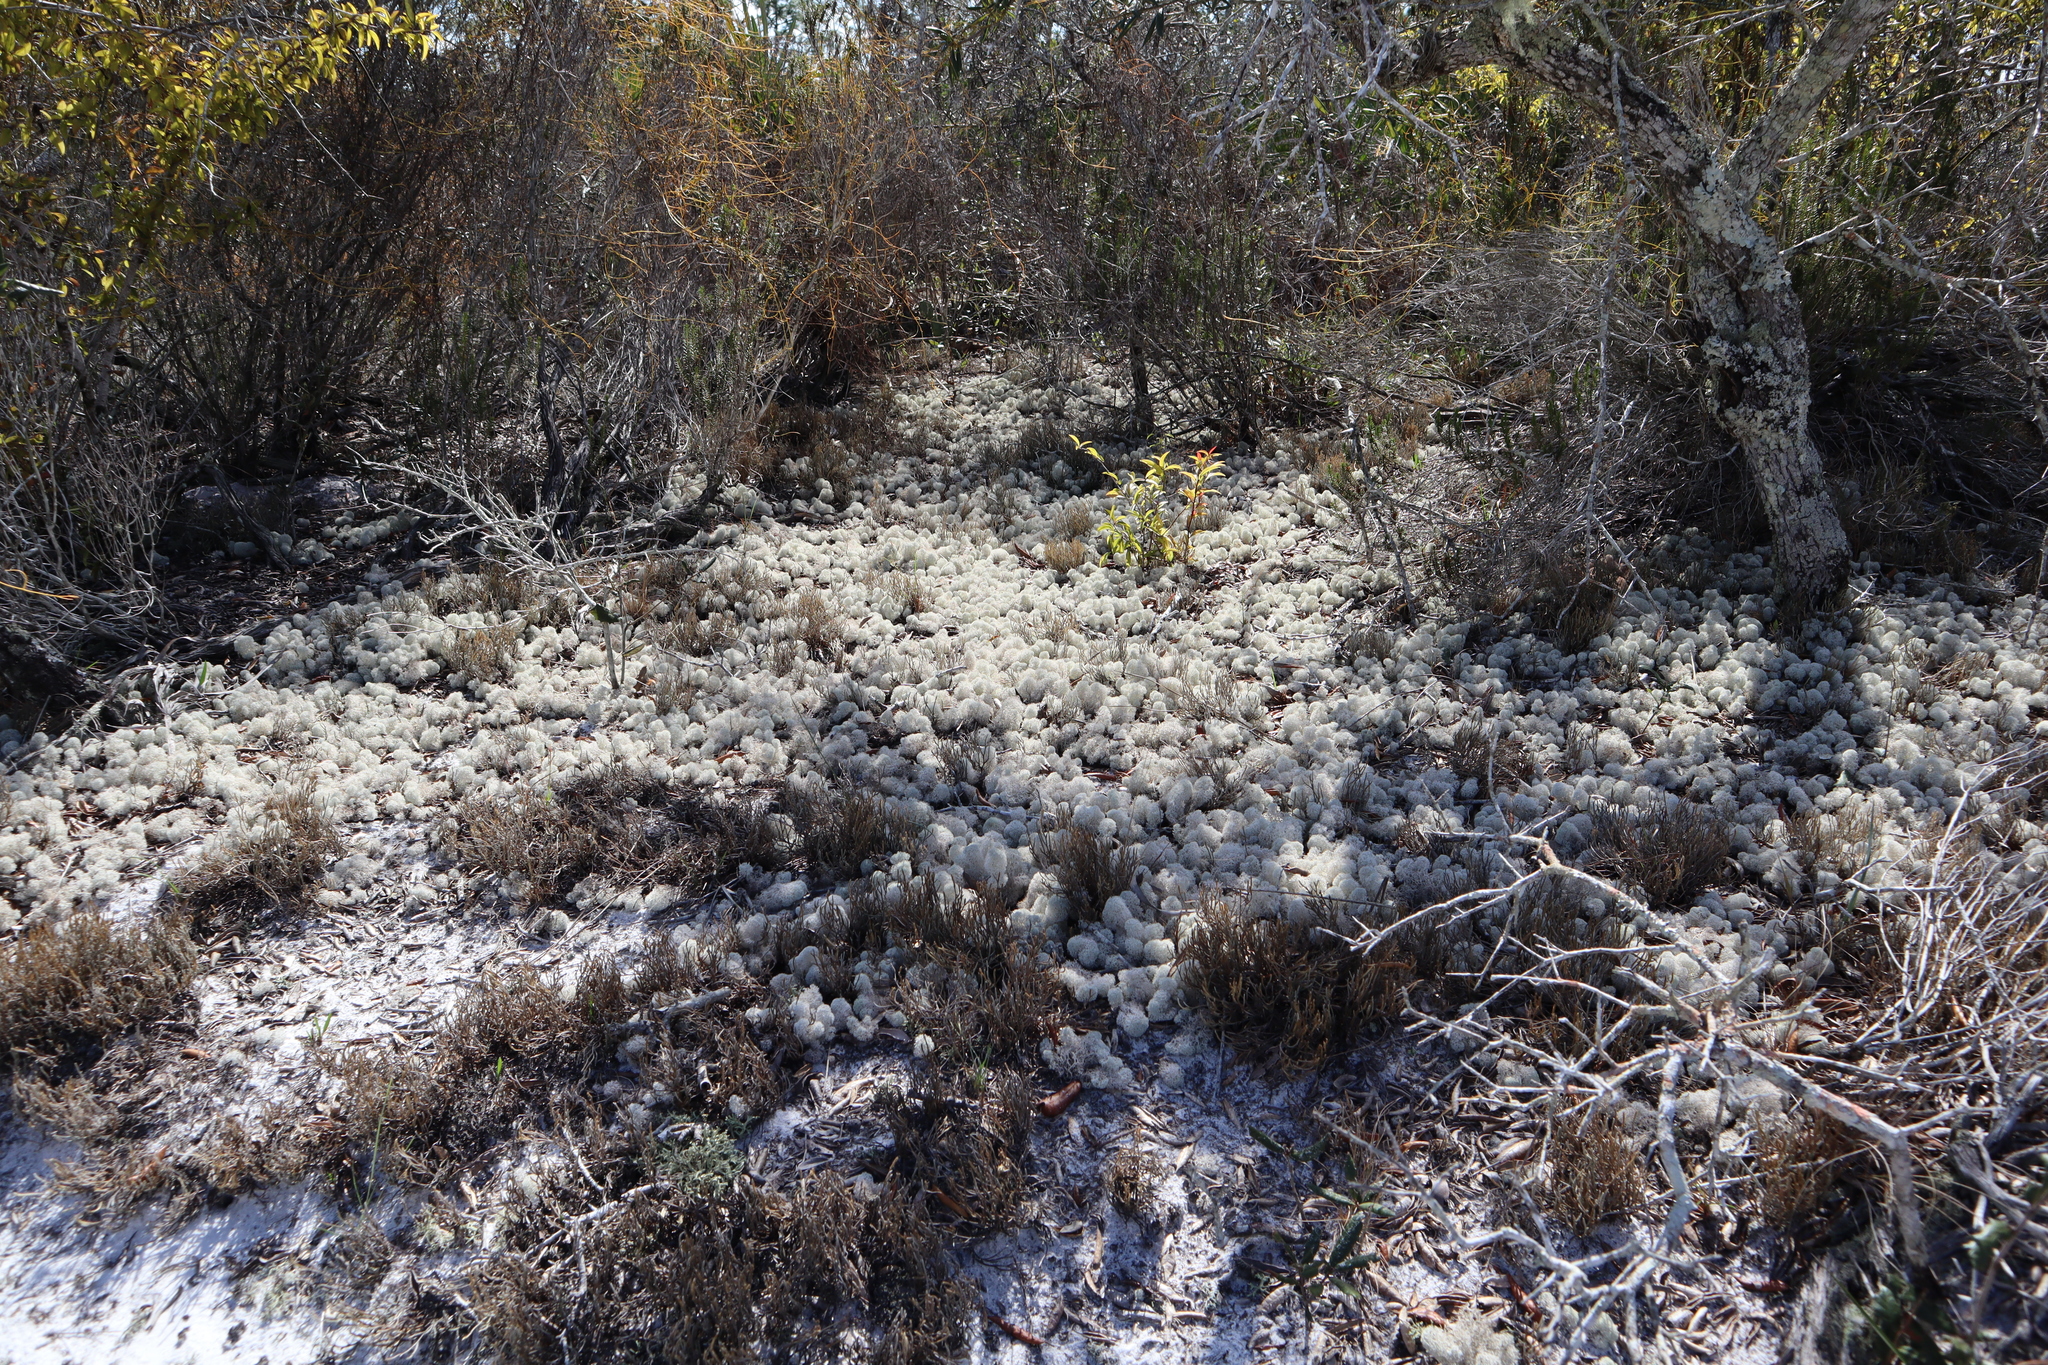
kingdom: Fungi
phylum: Ascomycota
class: Lecanoromycetes
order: Lecanorales
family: Cladoniaceae
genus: Cladonia
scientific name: Cladonia evansii
